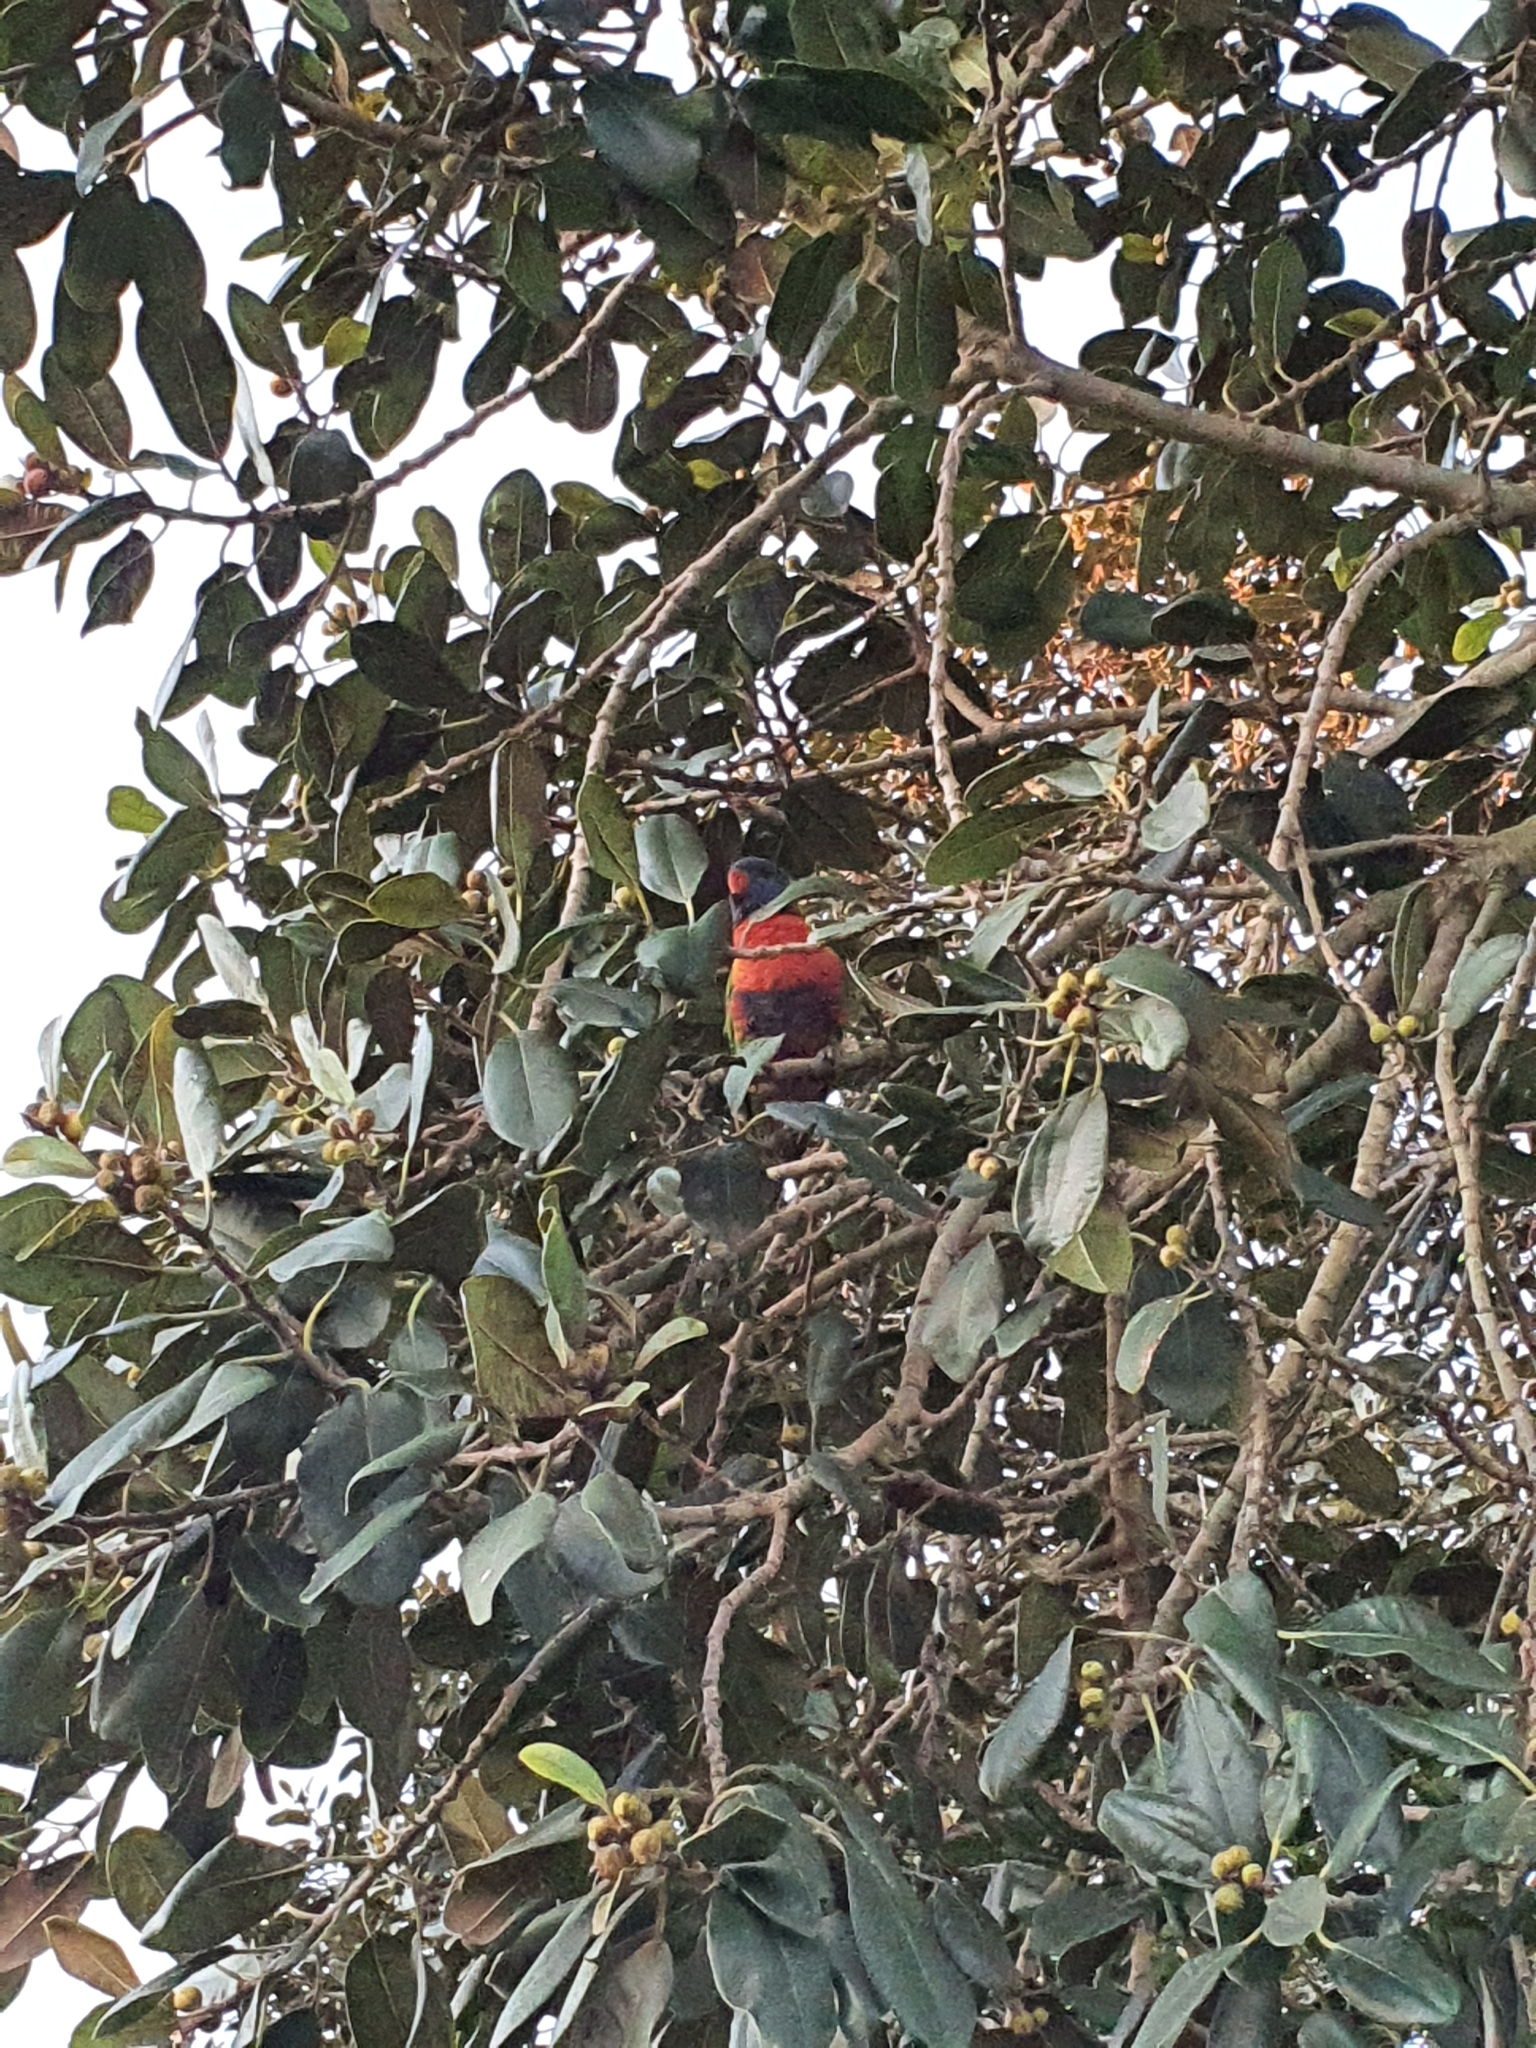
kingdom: Animalia
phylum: Chordata
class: Aves
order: Psittaciformes
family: Psittacidae
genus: Trichoglossus
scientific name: Trichoglossus haematodus
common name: Coconut lorikeet
